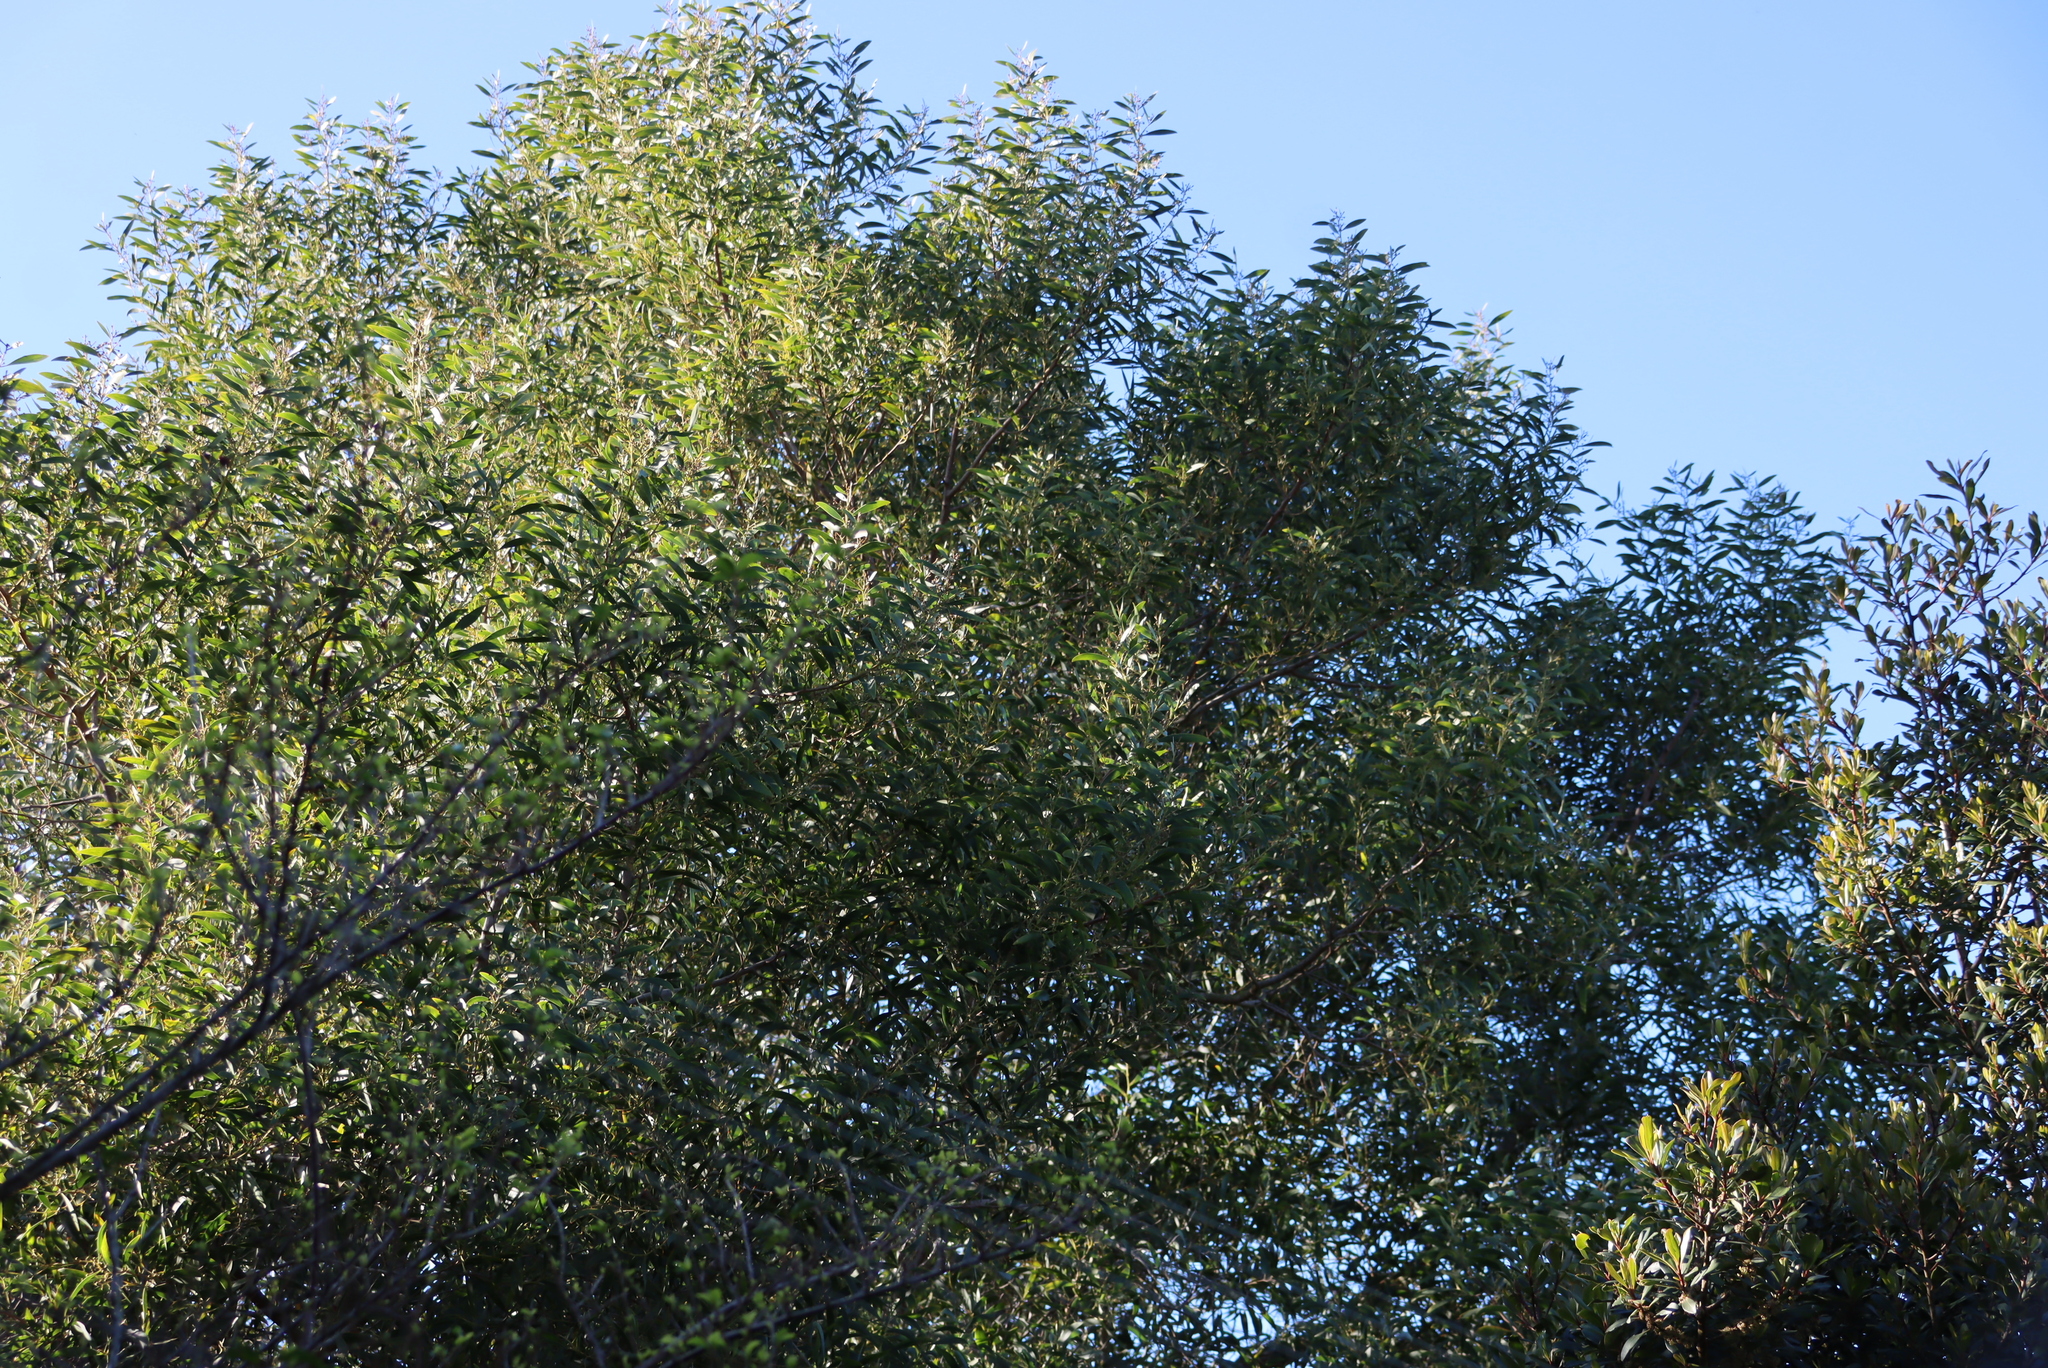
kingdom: Plantae
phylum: Tracheophyta
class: Magnoliopsida
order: Fabales
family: Fabaceae
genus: Acacia
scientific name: Acacia melanoxylon
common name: Blackwood
